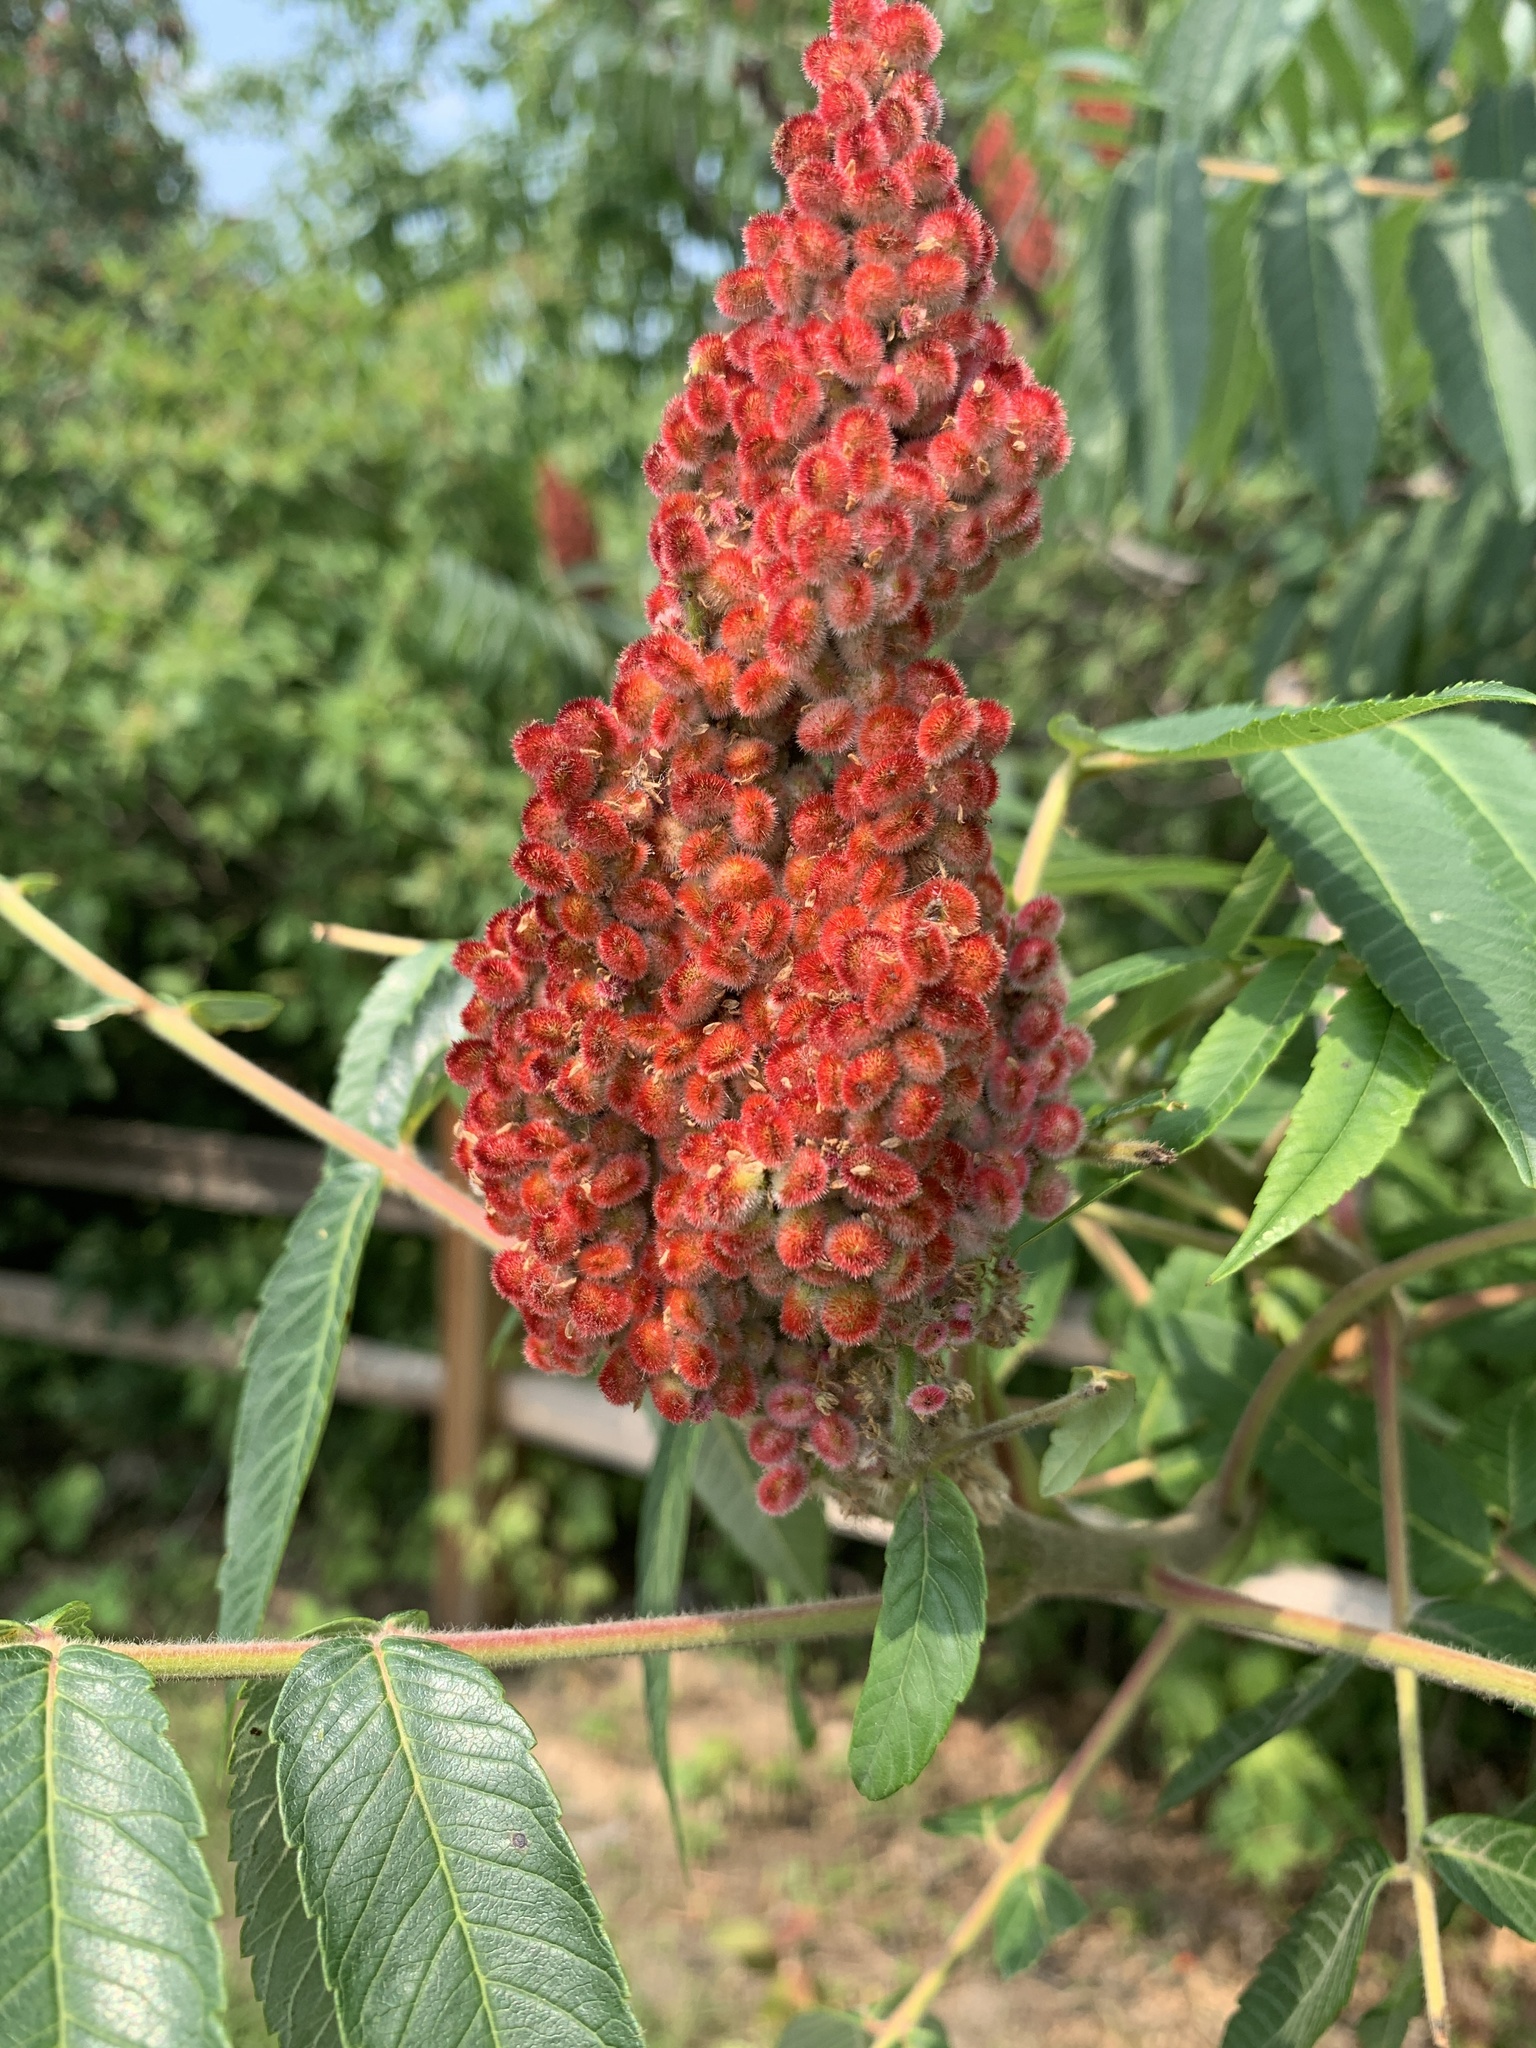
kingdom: Plantae
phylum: Tracheophyta
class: Magnoliopsida
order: Sapindales
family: Anacardiaceae
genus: Rhus
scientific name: Rhus typhina
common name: Staghorn sumac
